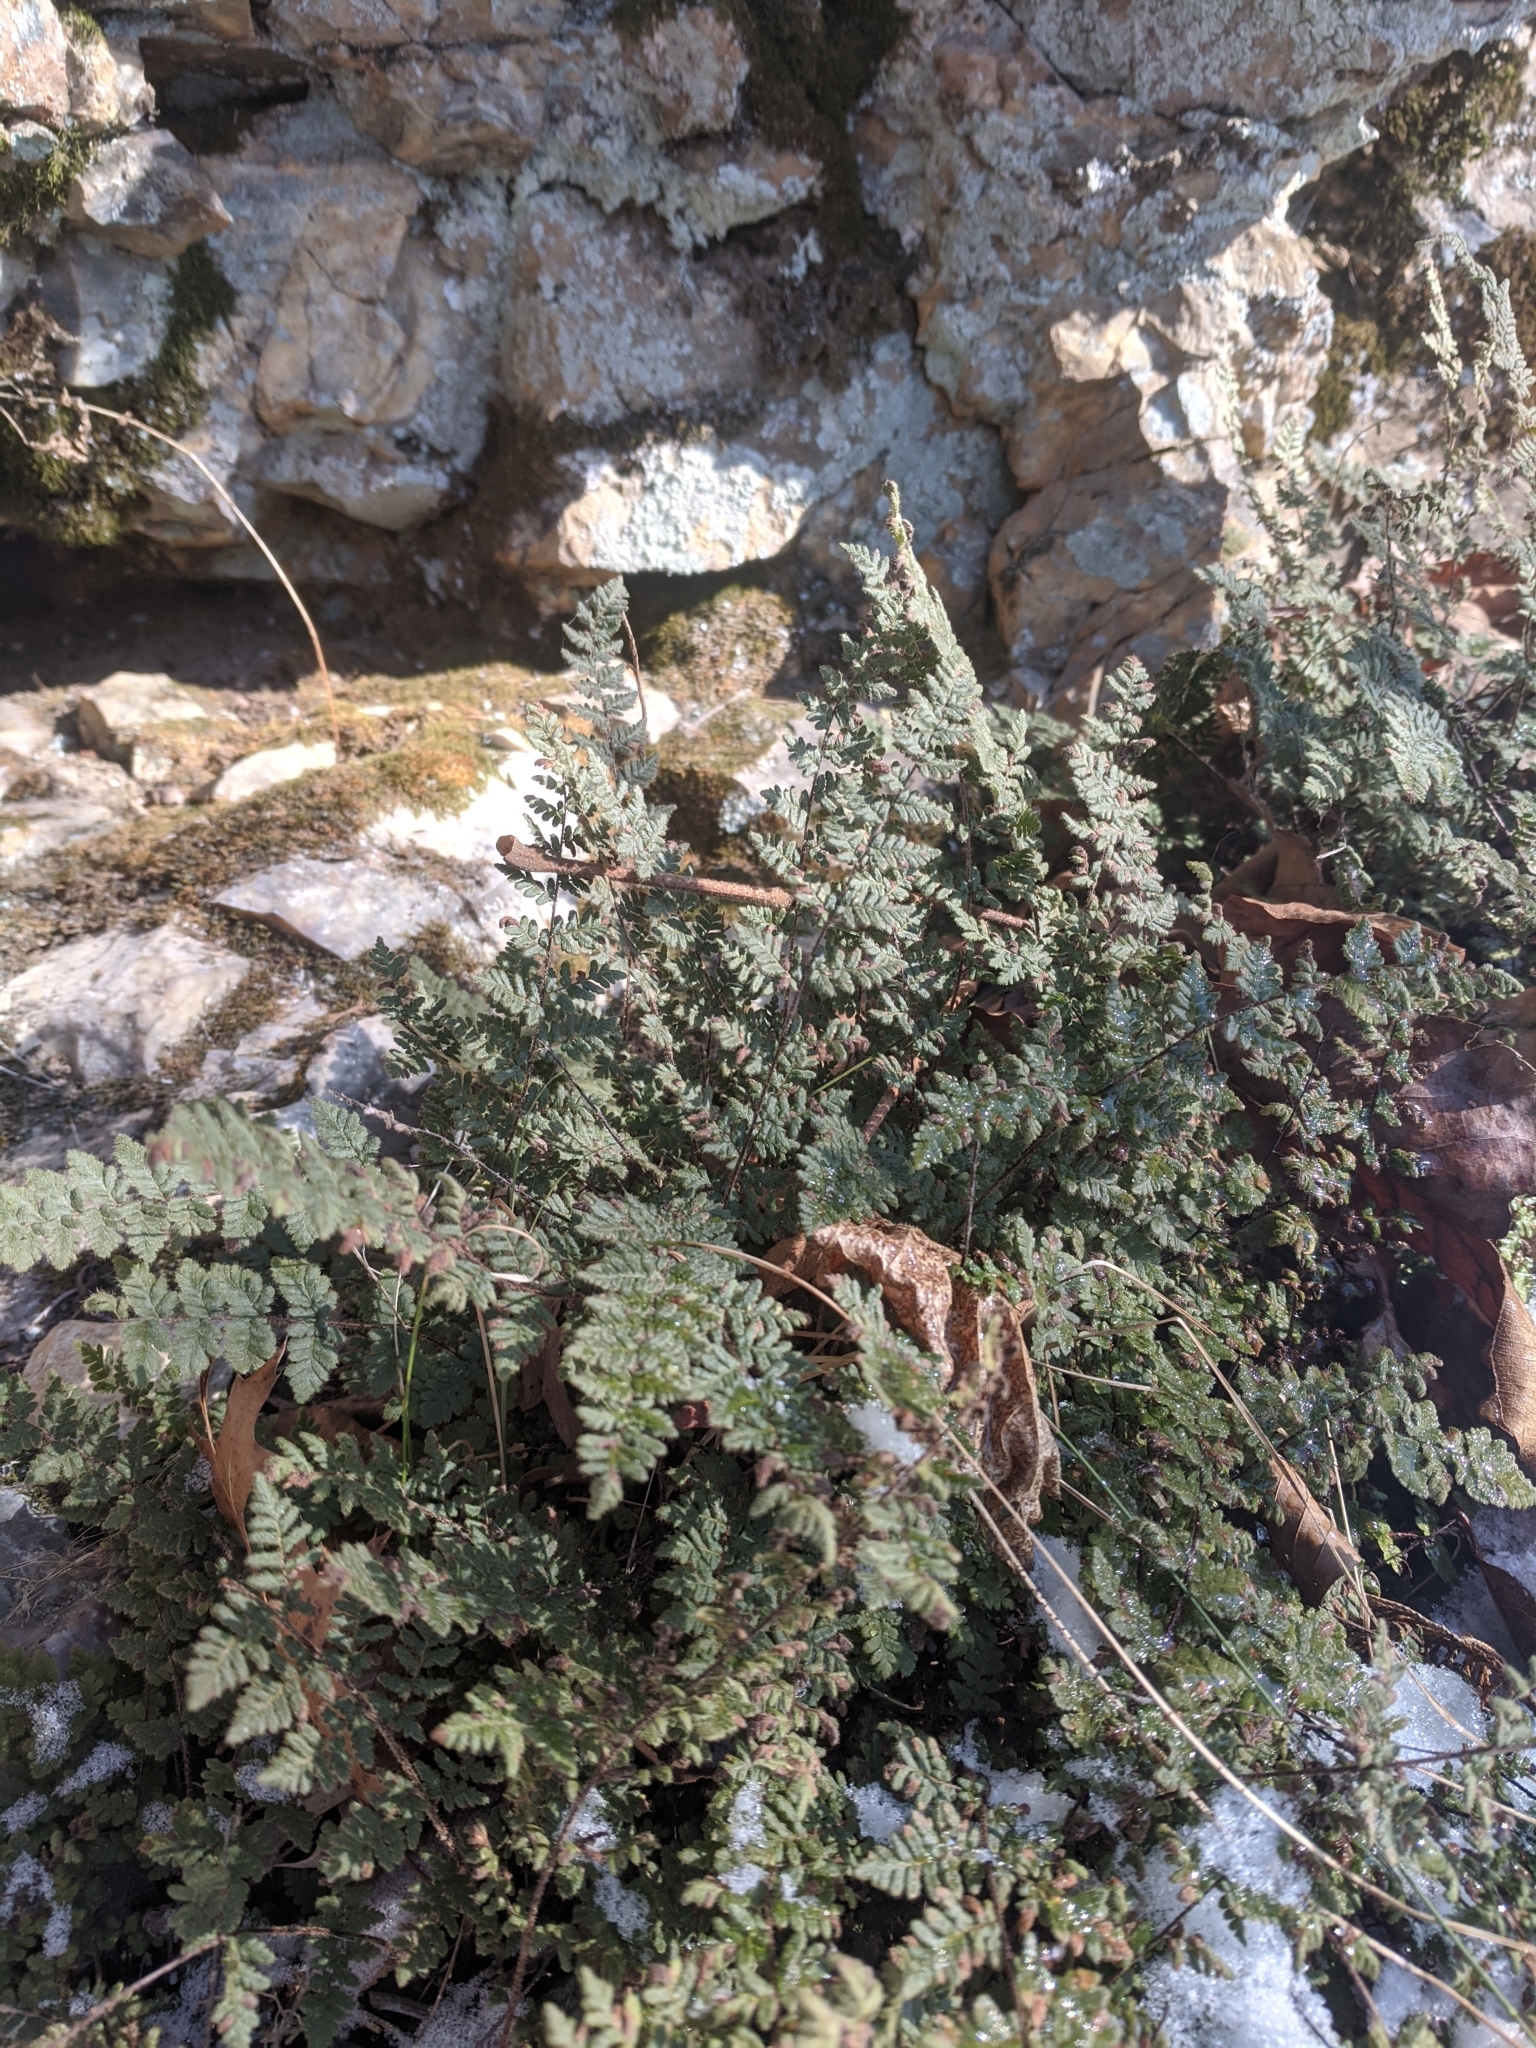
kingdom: Plantae
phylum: Tracheophyta
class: Polypodiopsida
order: Polypodiales
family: Pteridaceae
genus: Myriopteris
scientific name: Myriopteris lanosa
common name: Hairy lip fern
